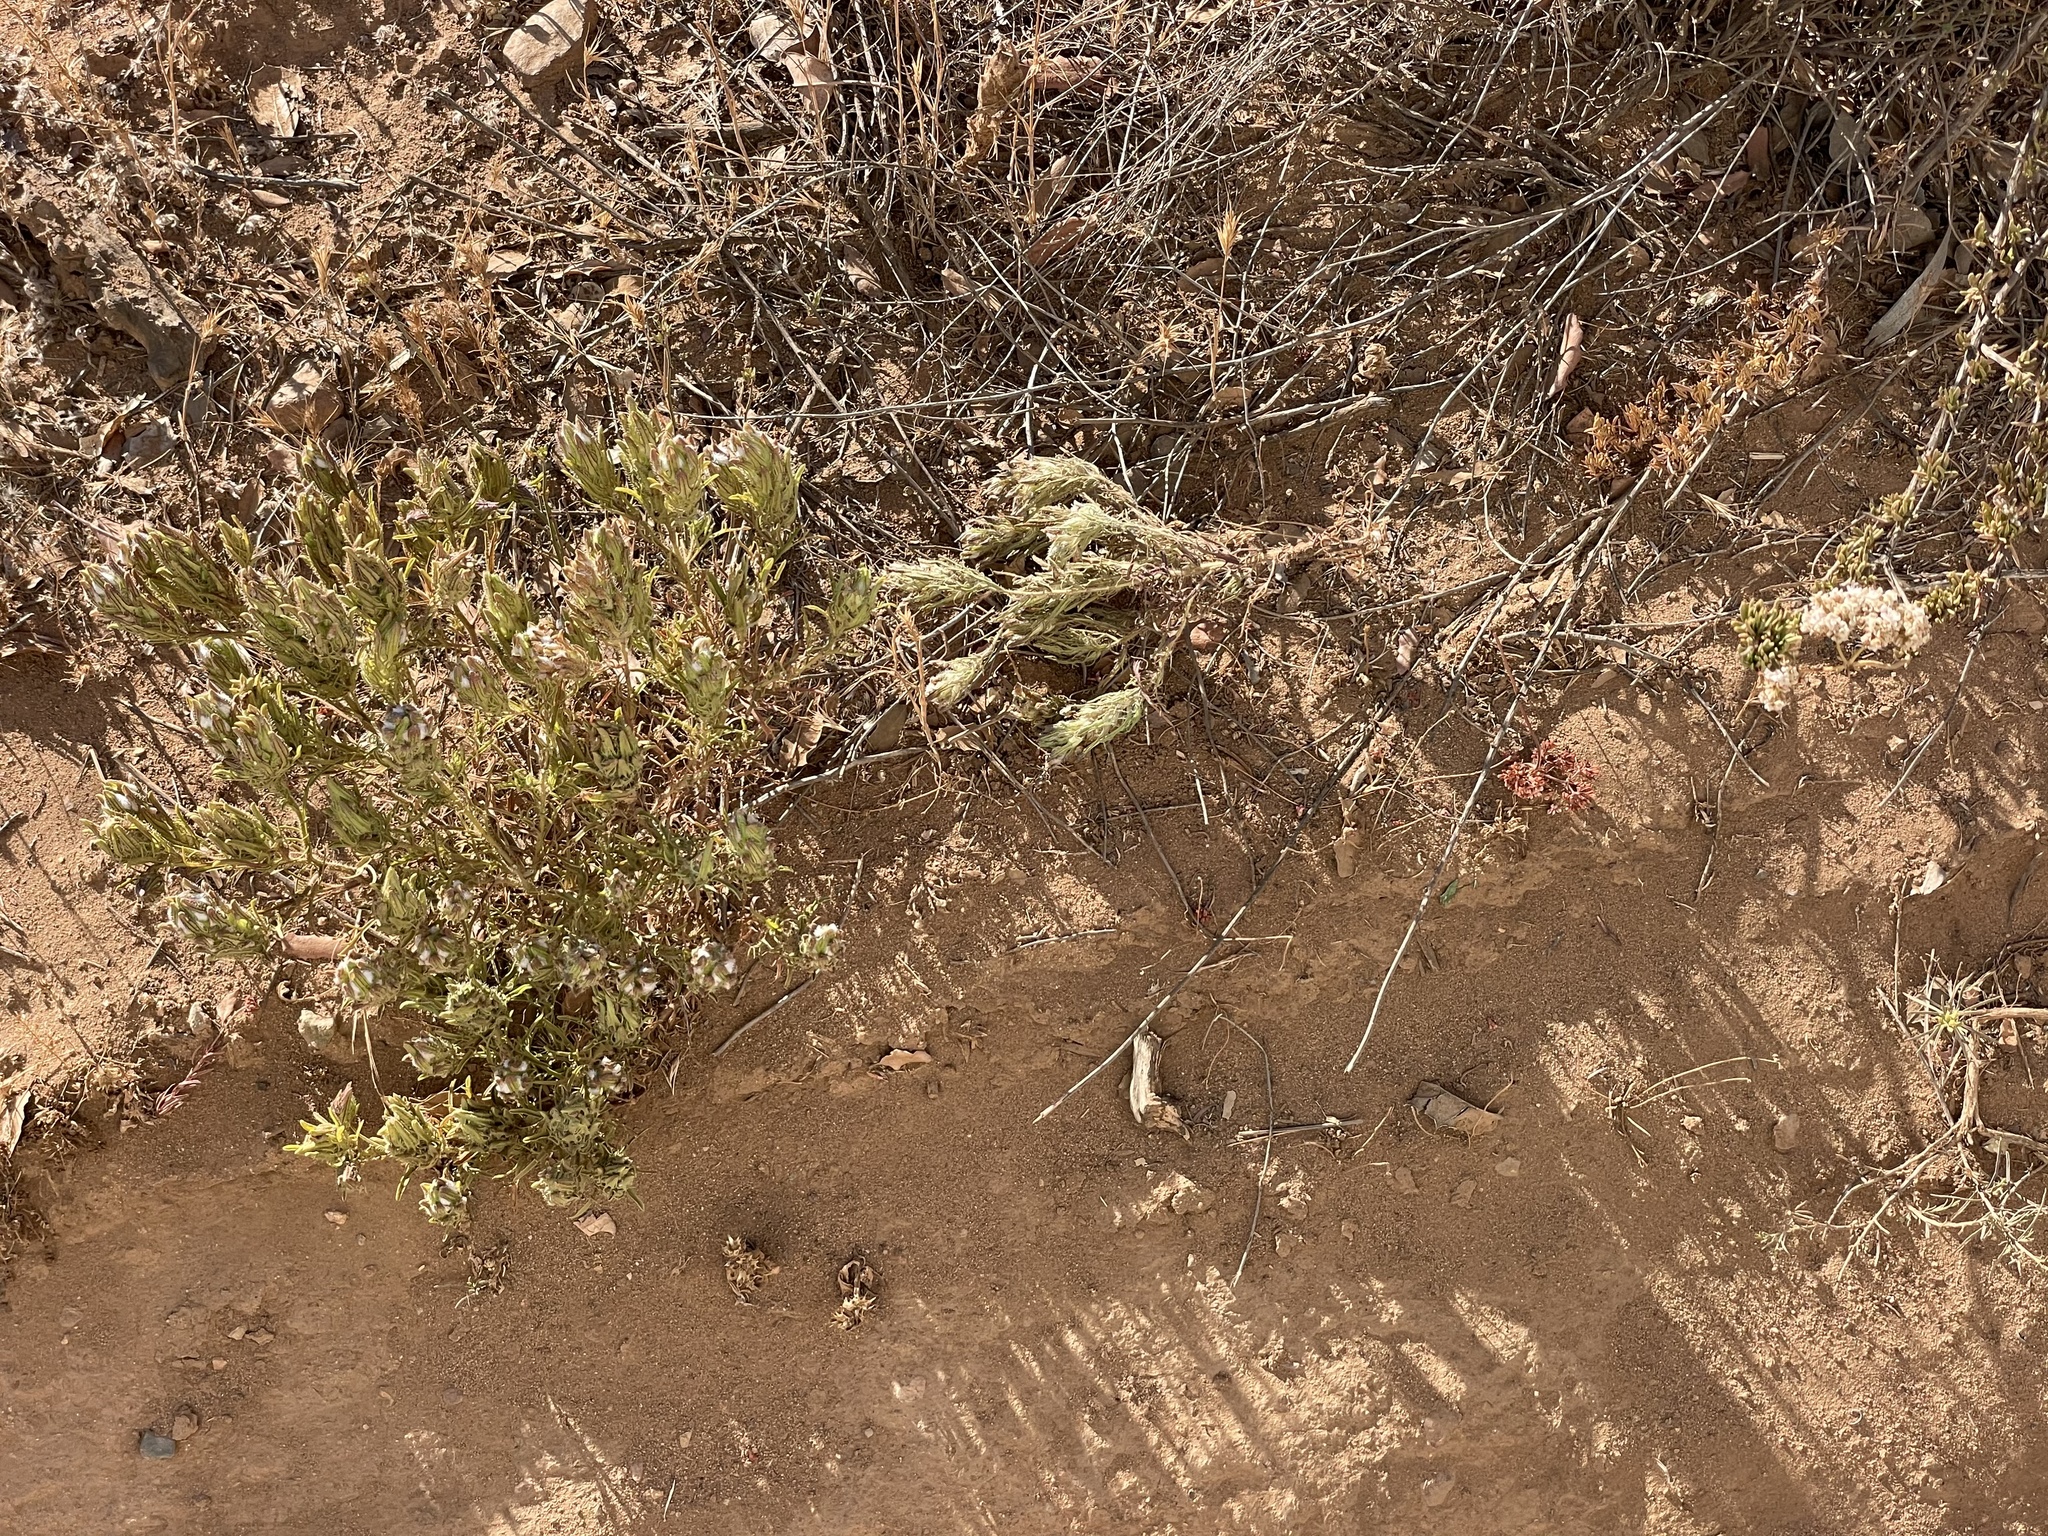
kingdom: Plantae
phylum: Tracheophyta
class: Magnoliopsida
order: Lamiales
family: Orobanchaceae
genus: Dicranostegia
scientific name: Dicranostegia orcuttiana
